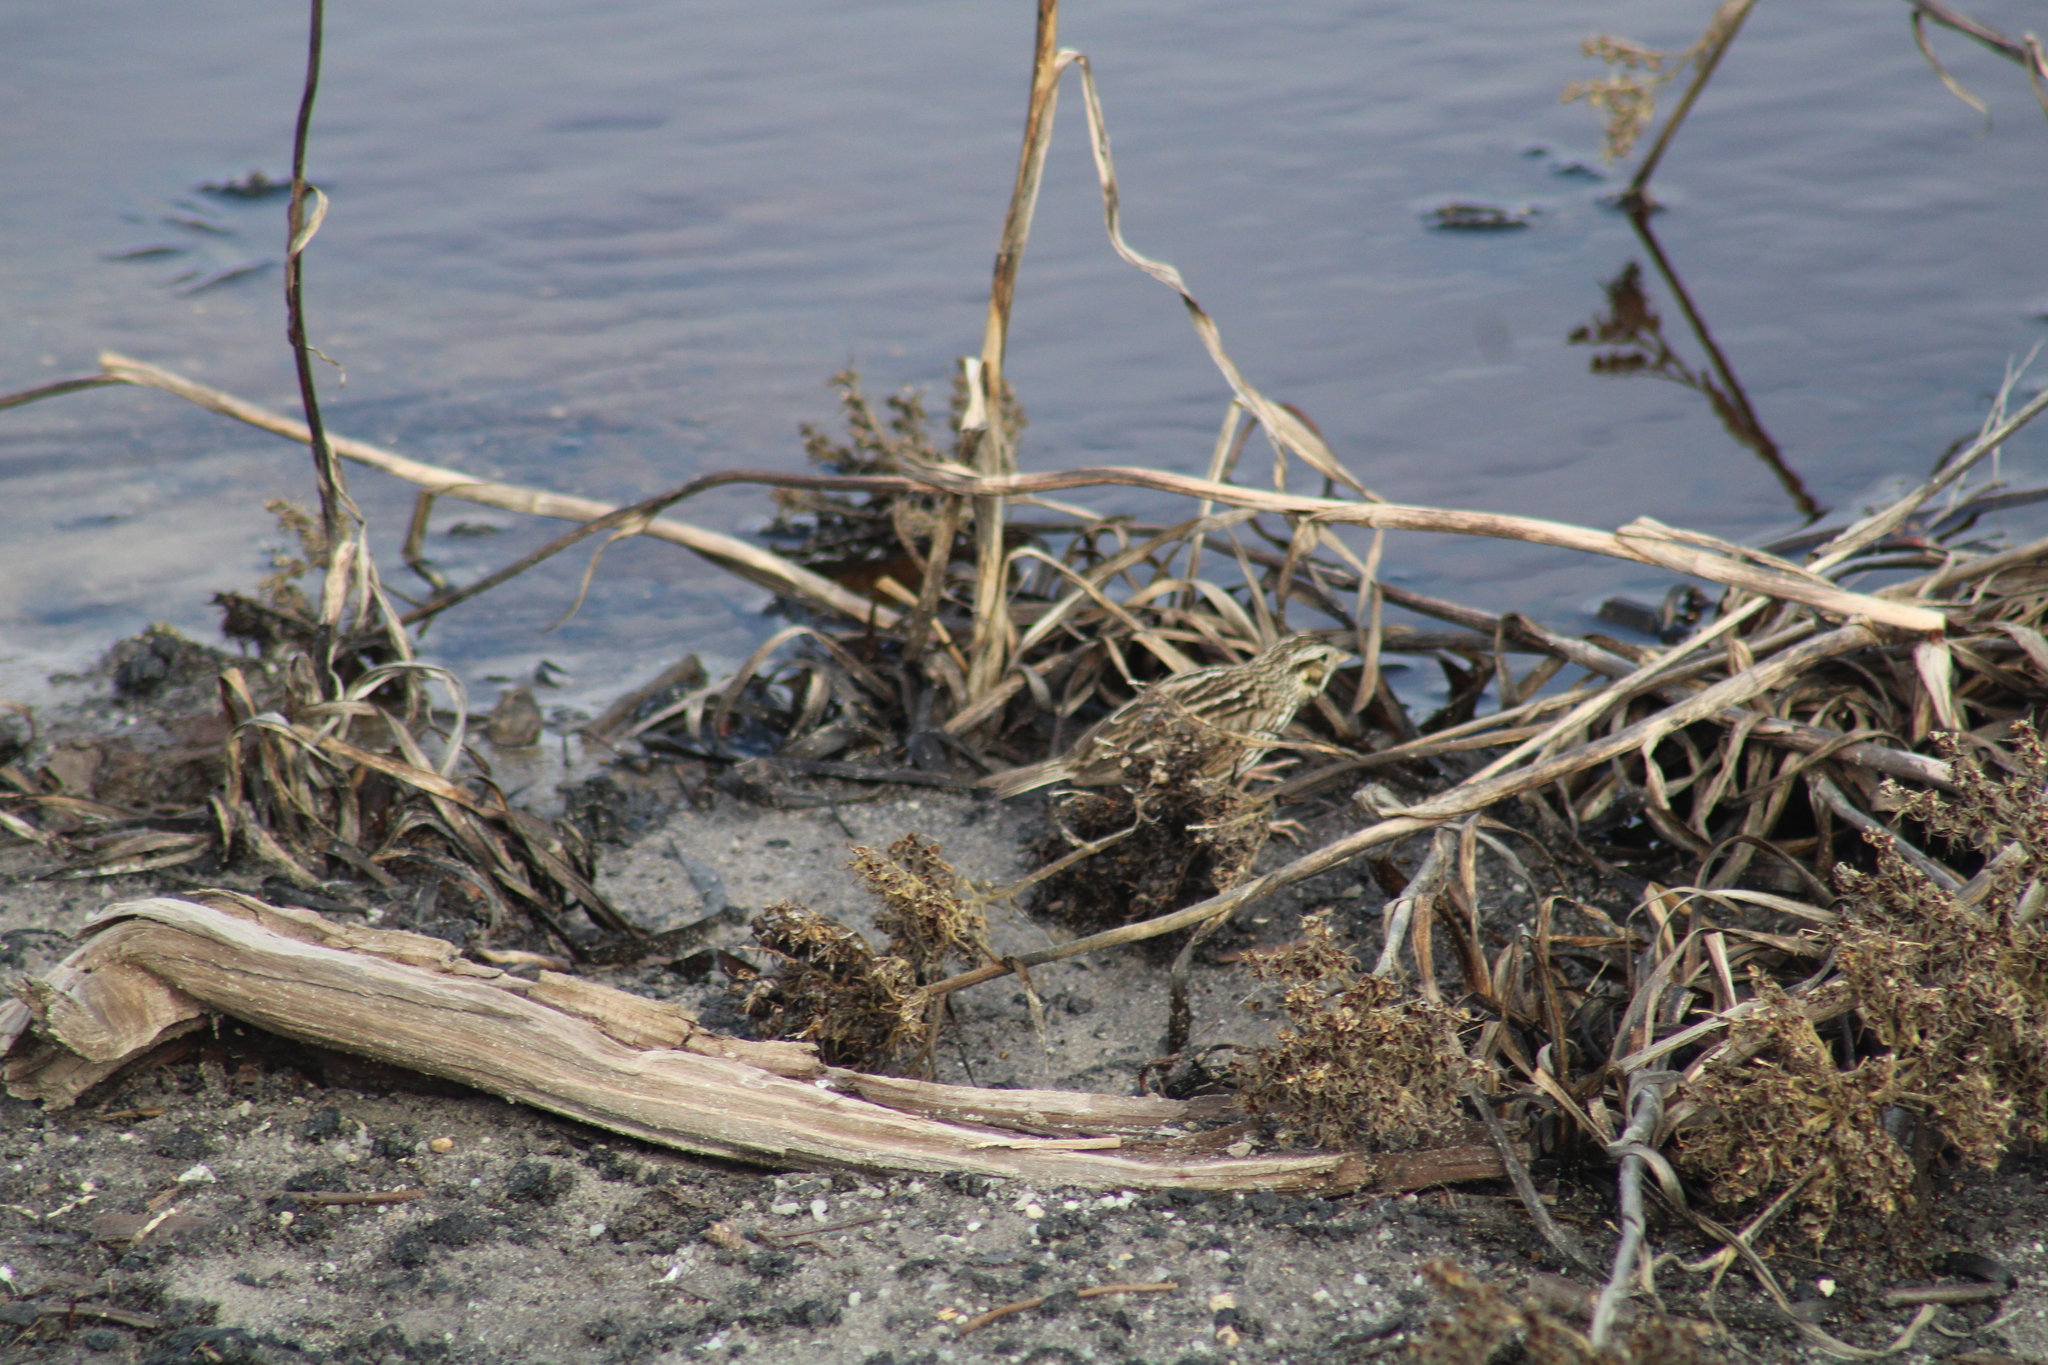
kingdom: Animalia
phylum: Chordata
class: Aves
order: Passeriformes
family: Passerellidae
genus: Passerculus
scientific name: Passerculus sandwichensis
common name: Savannah sparrow
